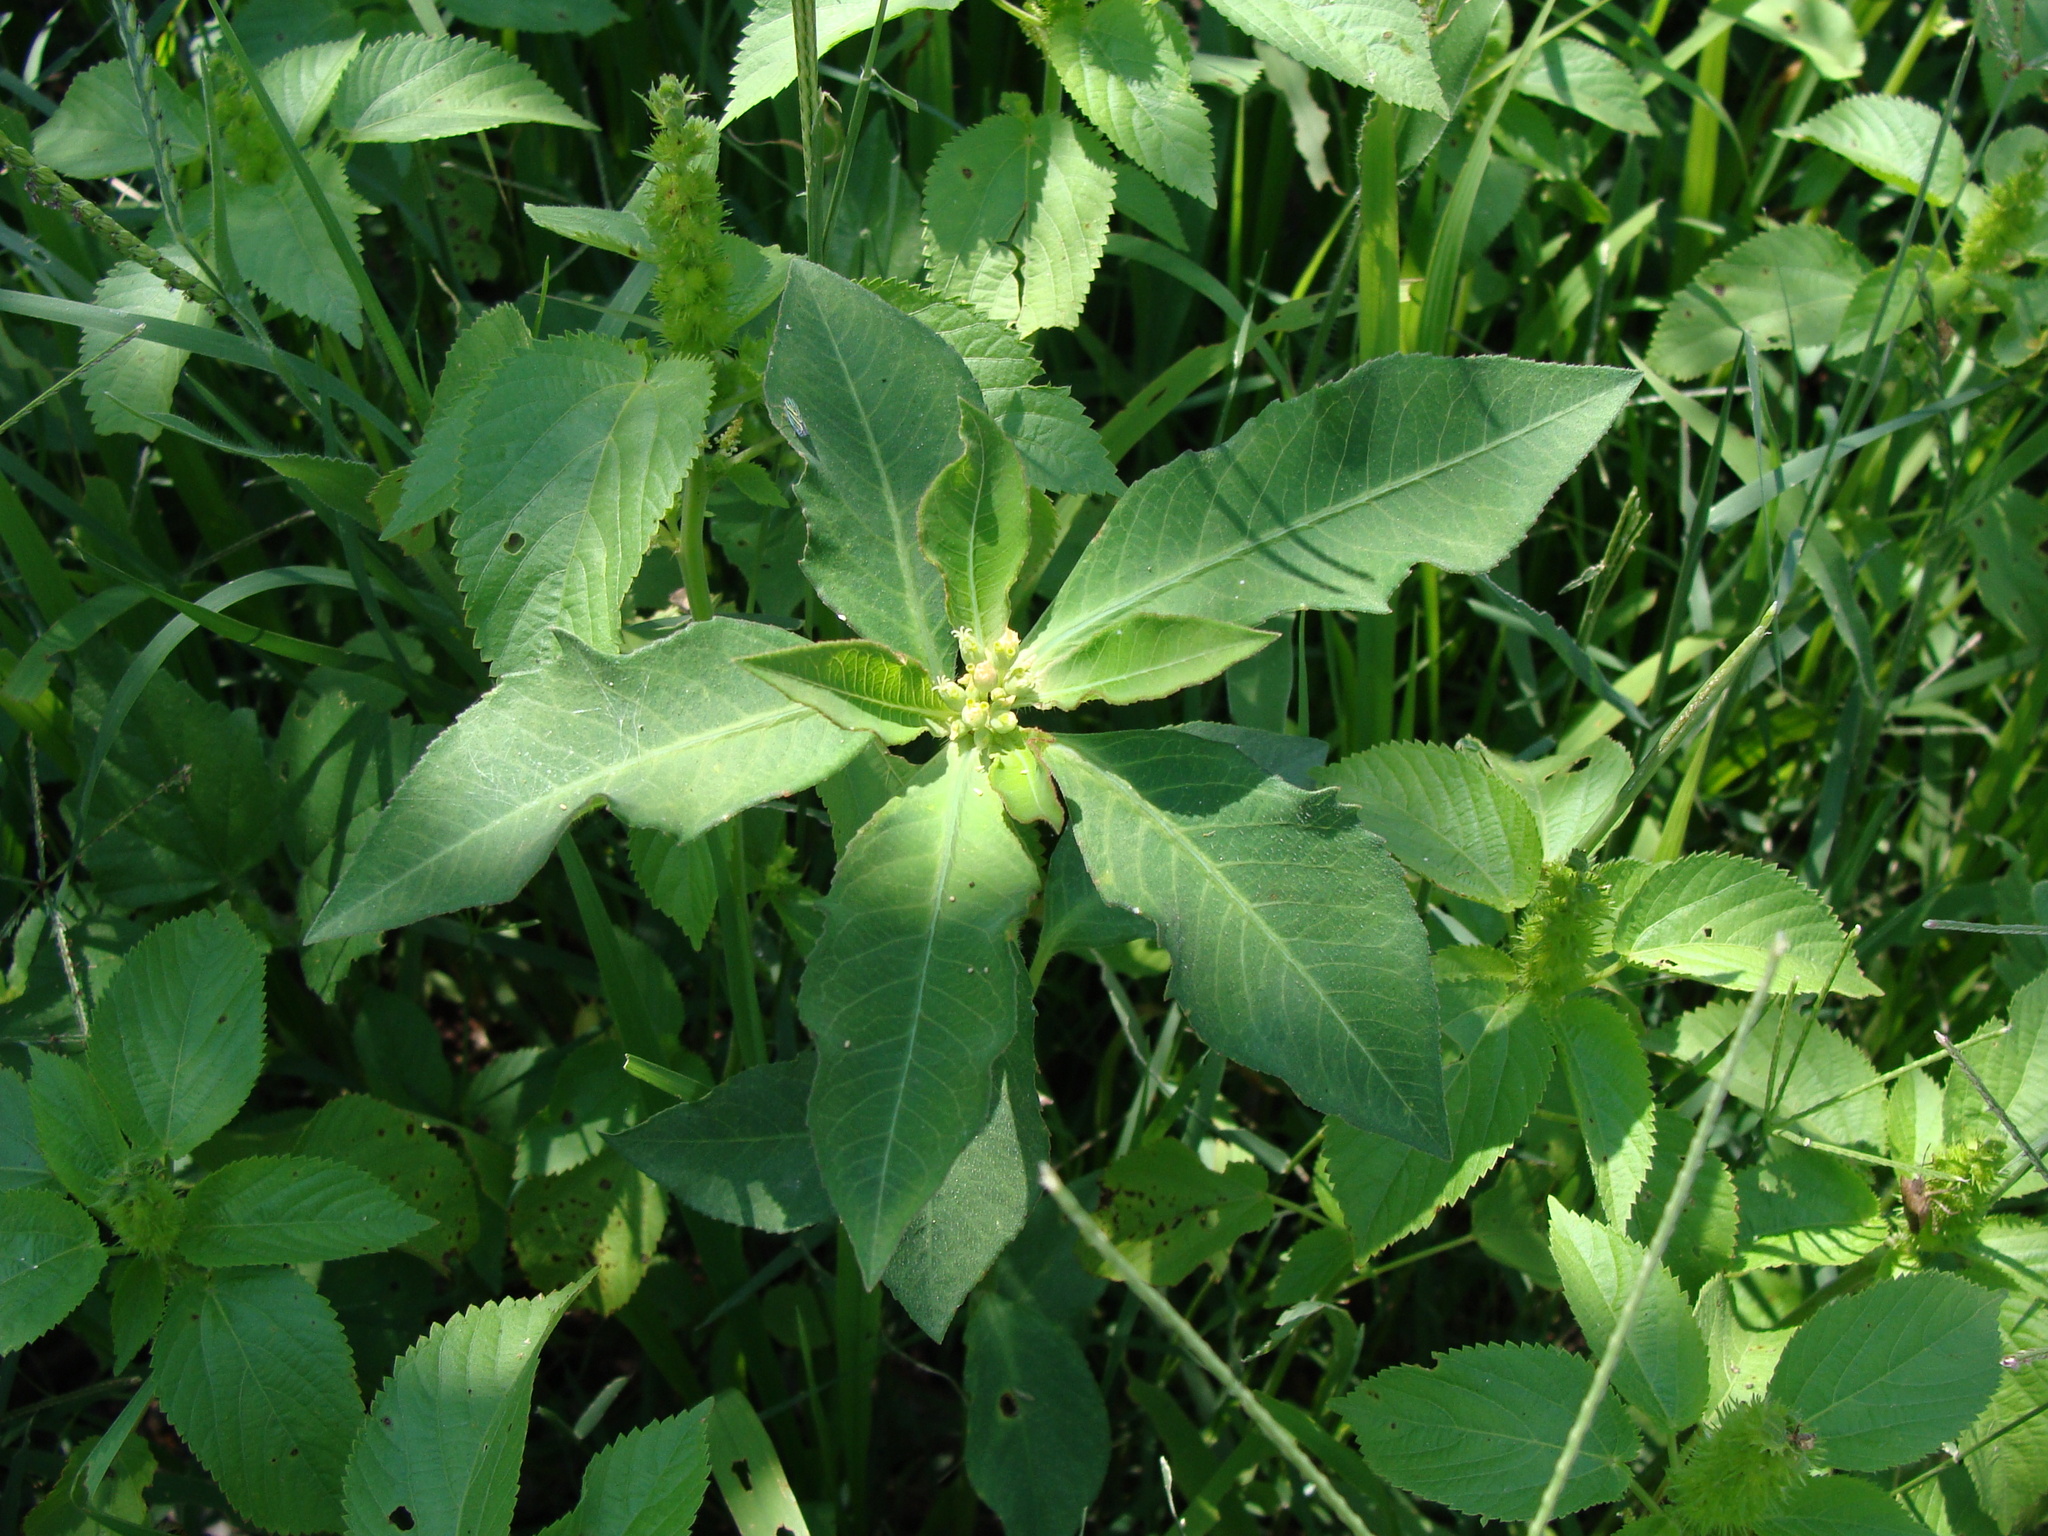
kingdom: Plantae
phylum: Tracheophyta
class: Magnoliopsida
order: Malpighiales
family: Euphorbiaceae
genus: Euphorbia
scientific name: Euphorbia heterophylla
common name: Mexican fireplant
